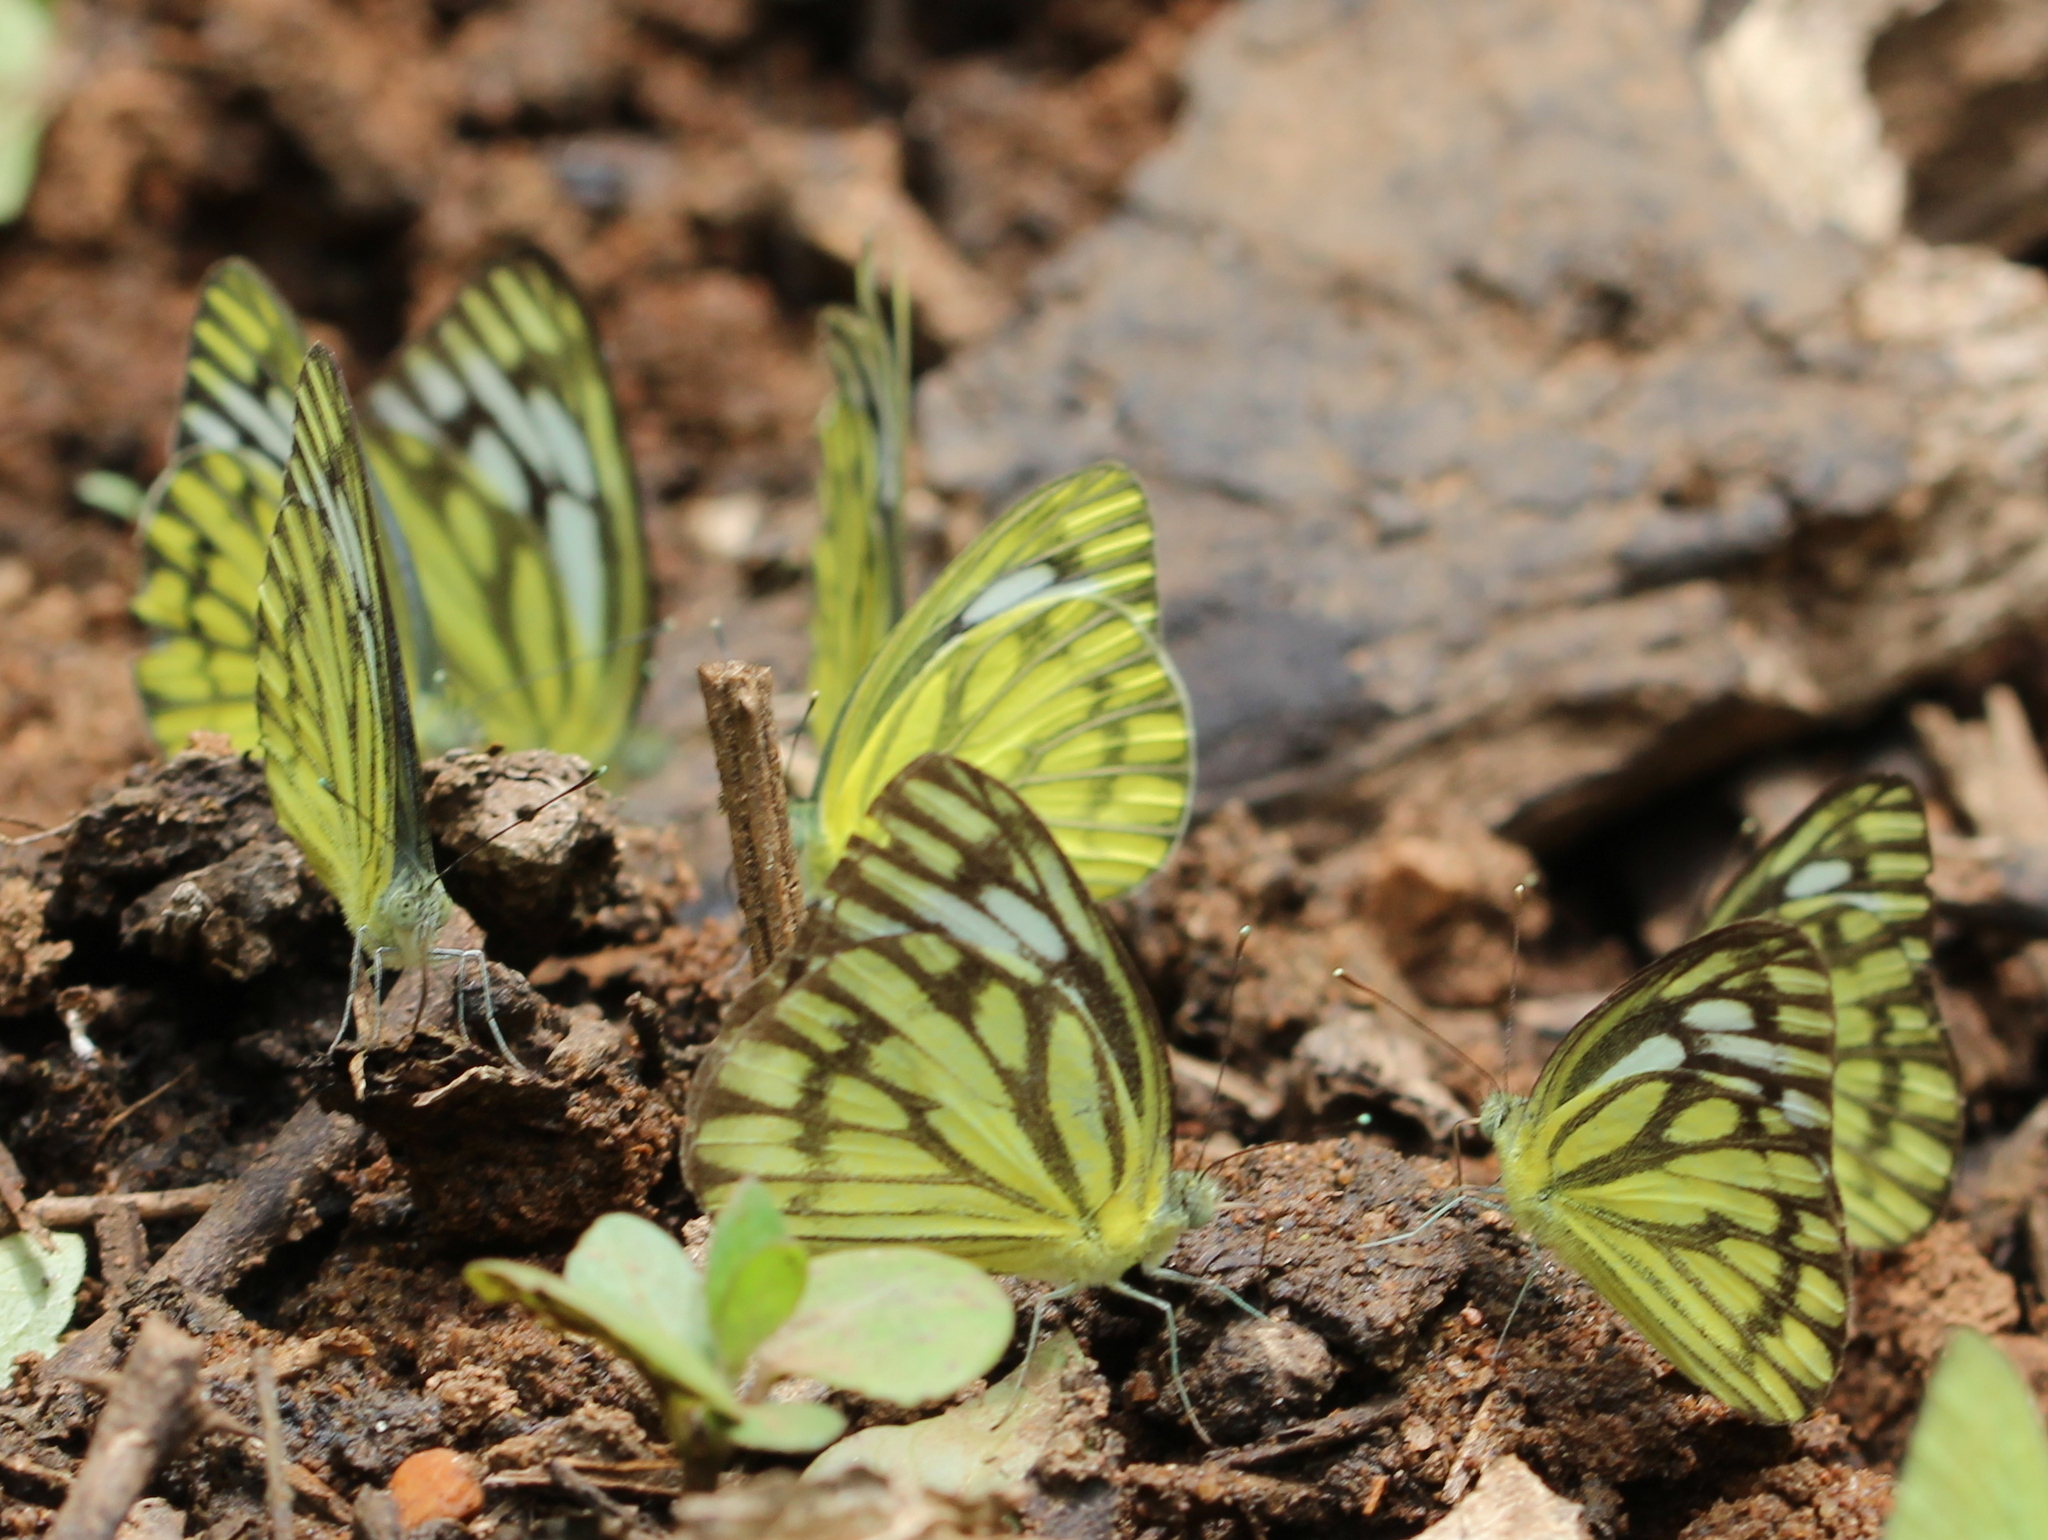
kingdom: Animalia
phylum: Arthropoda
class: Insecta
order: Lepidoptera
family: Pieridae
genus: Cepora
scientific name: Cepora nerissa
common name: Common gull
